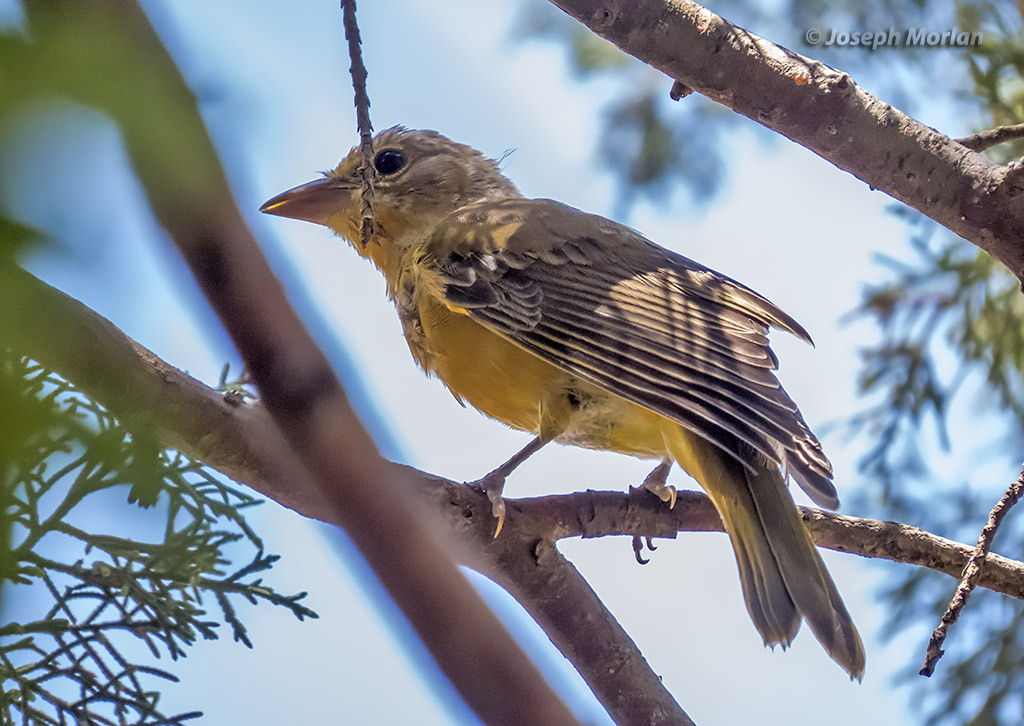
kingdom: Animalia
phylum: Chordata
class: Aves
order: Passeriformes
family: Cardinalidae
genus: Piranga
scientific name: Piranga rubra
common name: Summer tanager
